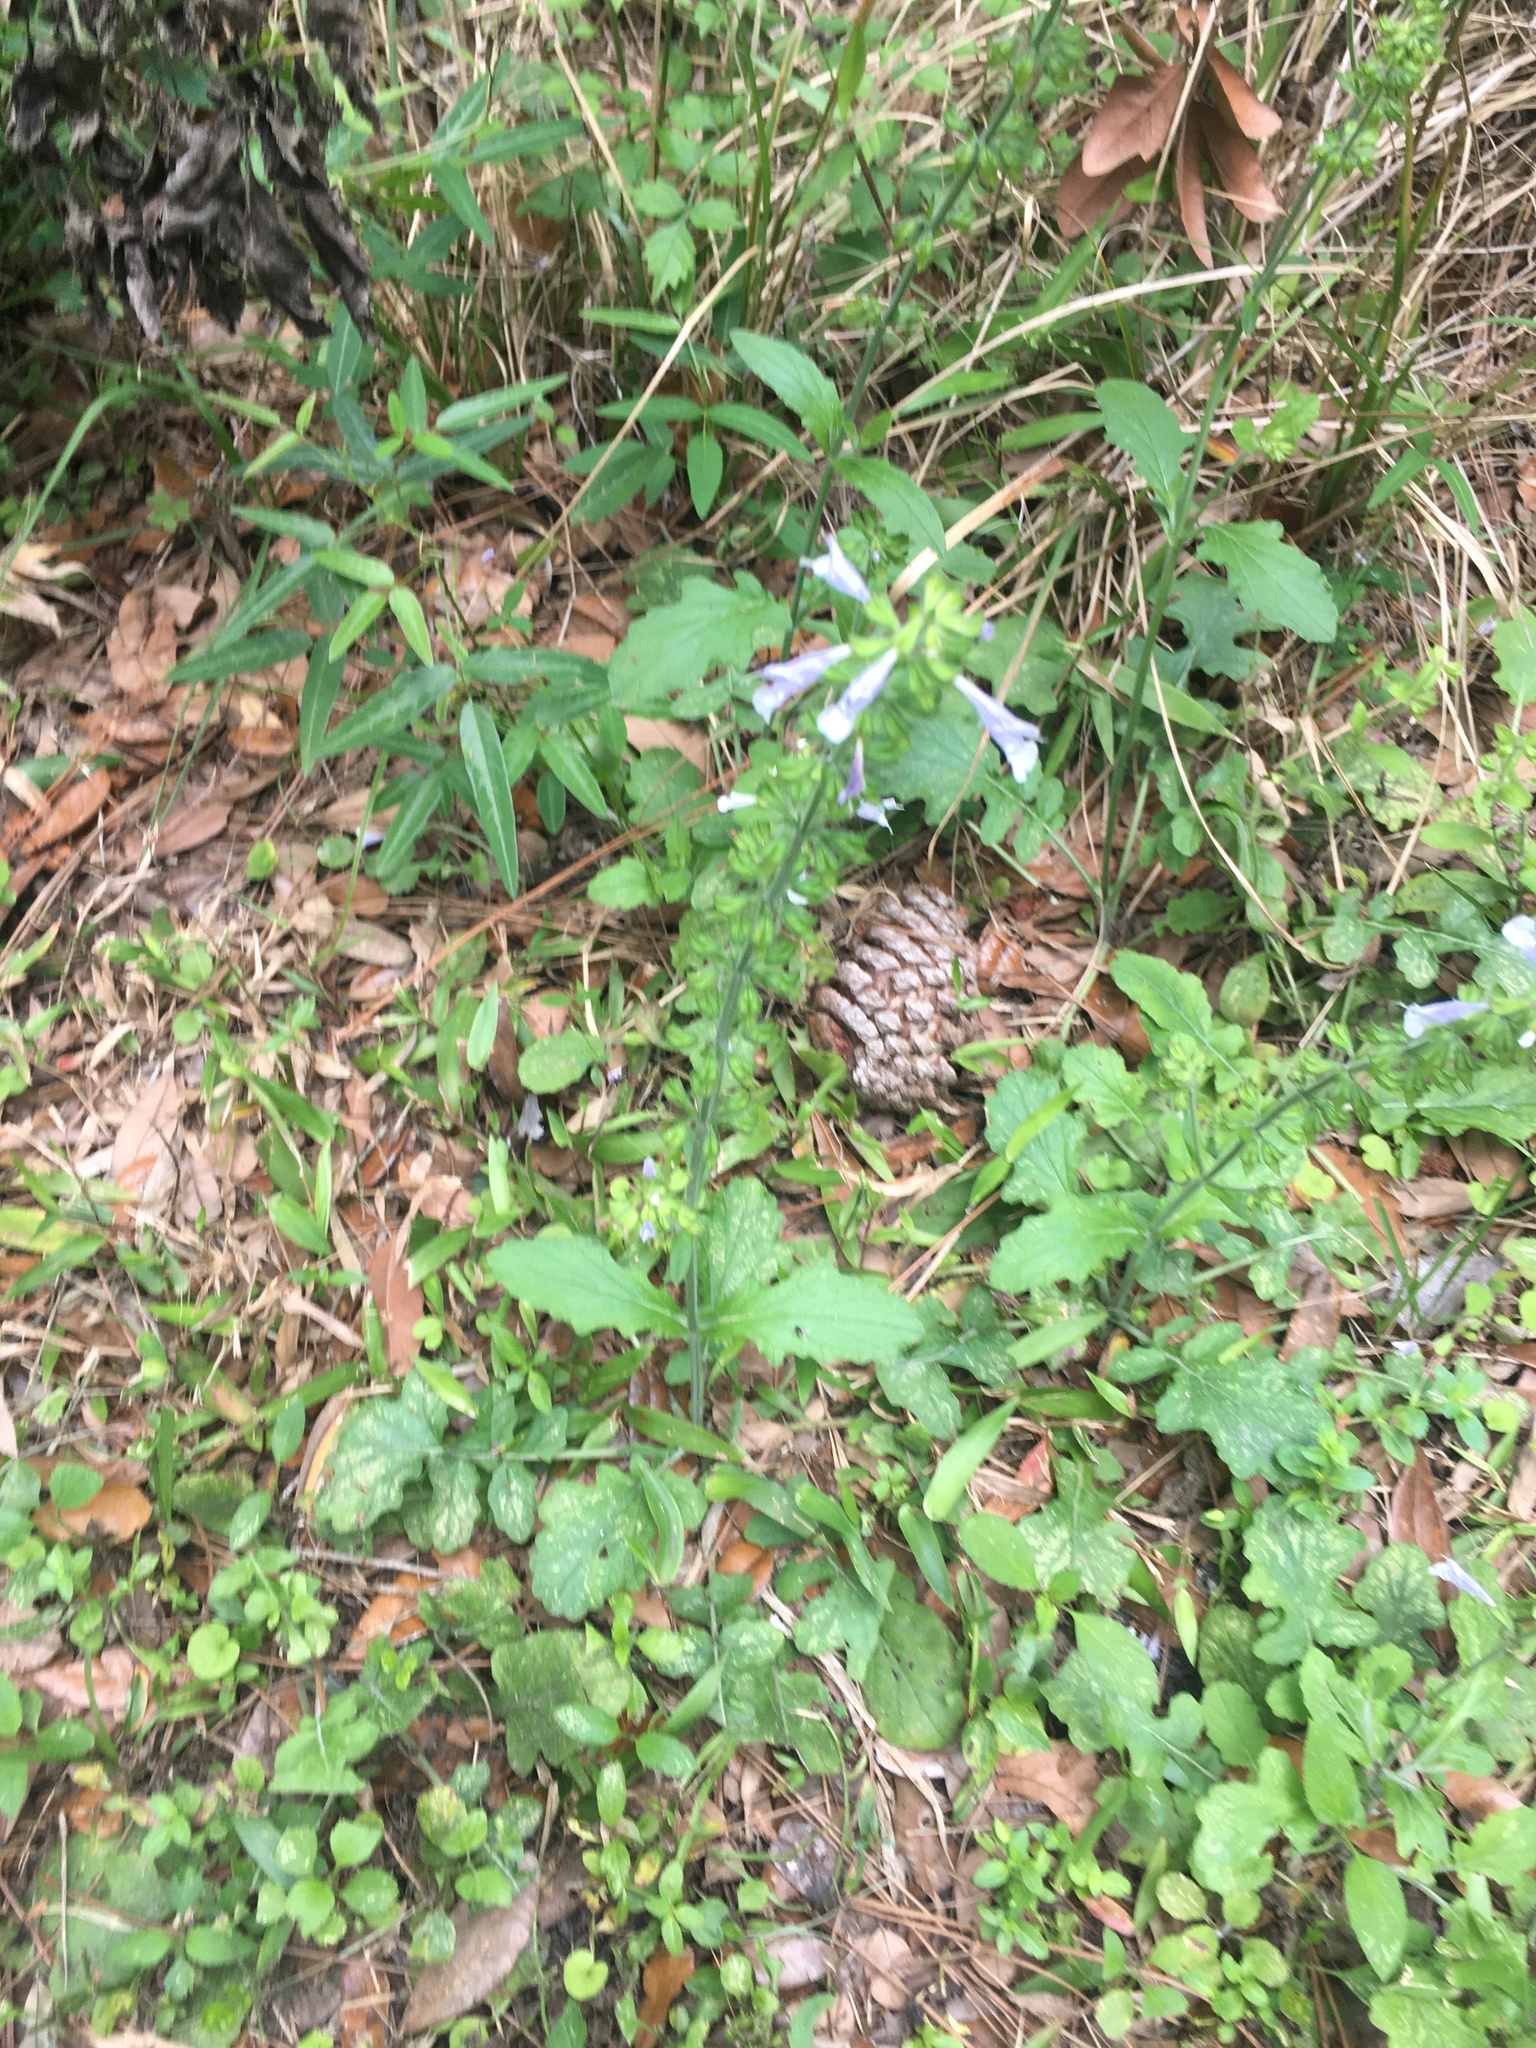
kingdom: Plantae
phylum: Tracheophyta
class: Magnoliopsida
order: Lamiales
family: Lamiaceae
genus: Salvia
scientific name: Salvia lyrata
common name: Cancerweed
